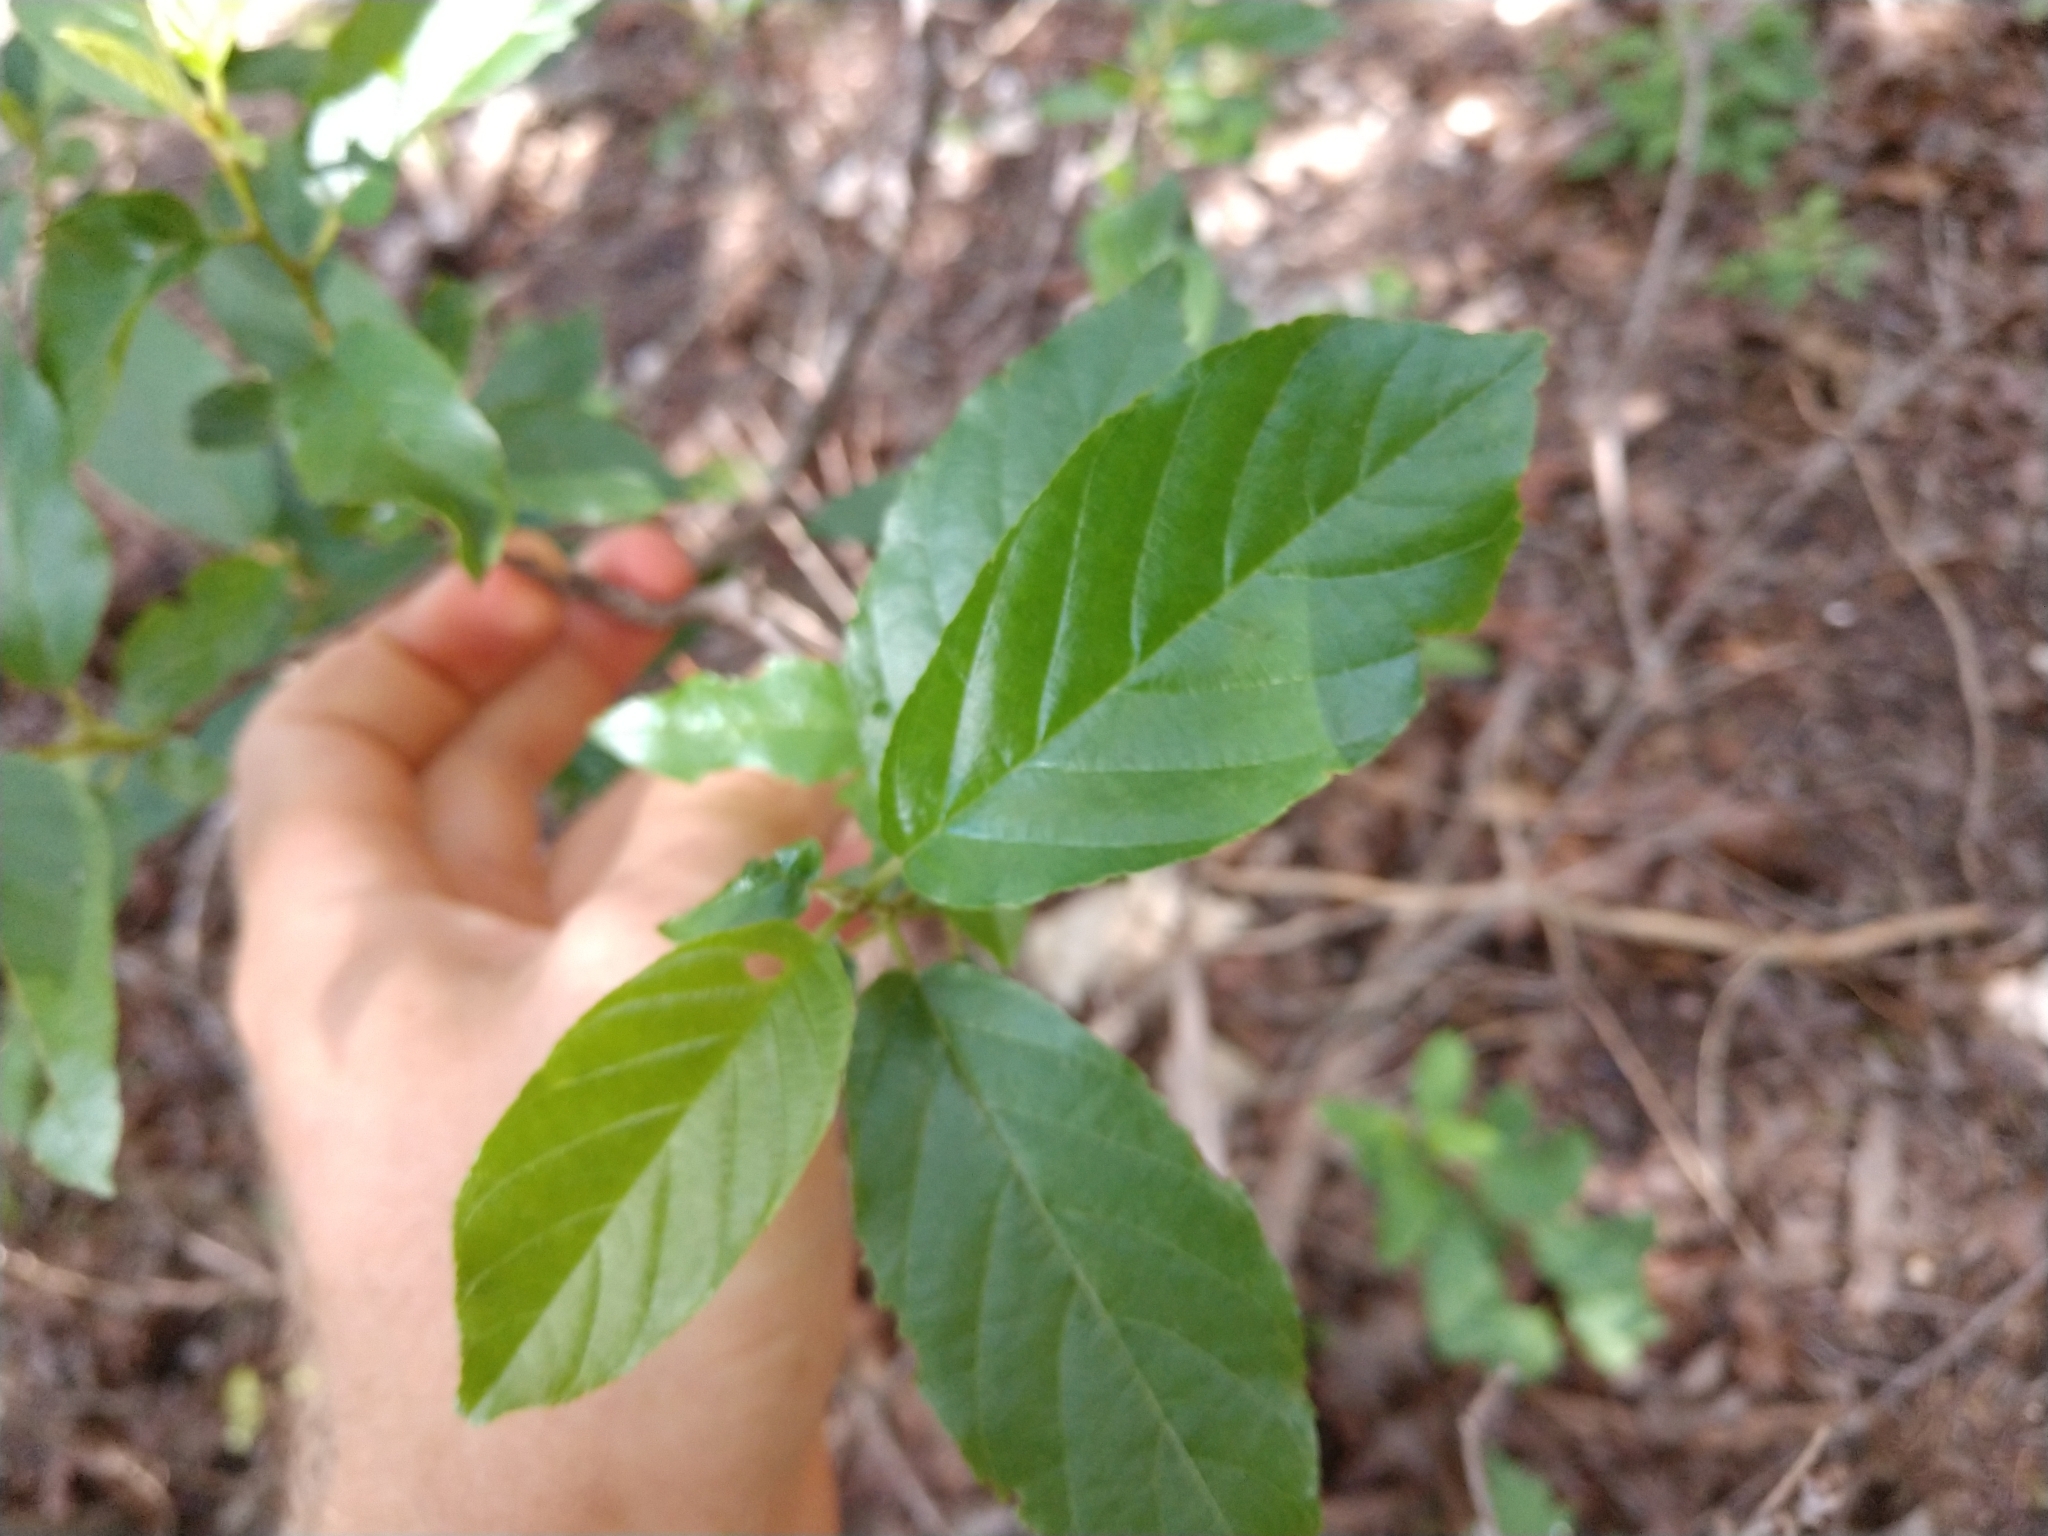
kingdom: Plantae
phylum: Tracheophyta
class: Magnoliopsida
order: Rosales
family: Rhamnaceae
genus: Frangula
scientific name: Frangula caroliniana
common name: Carolina buckthorn
